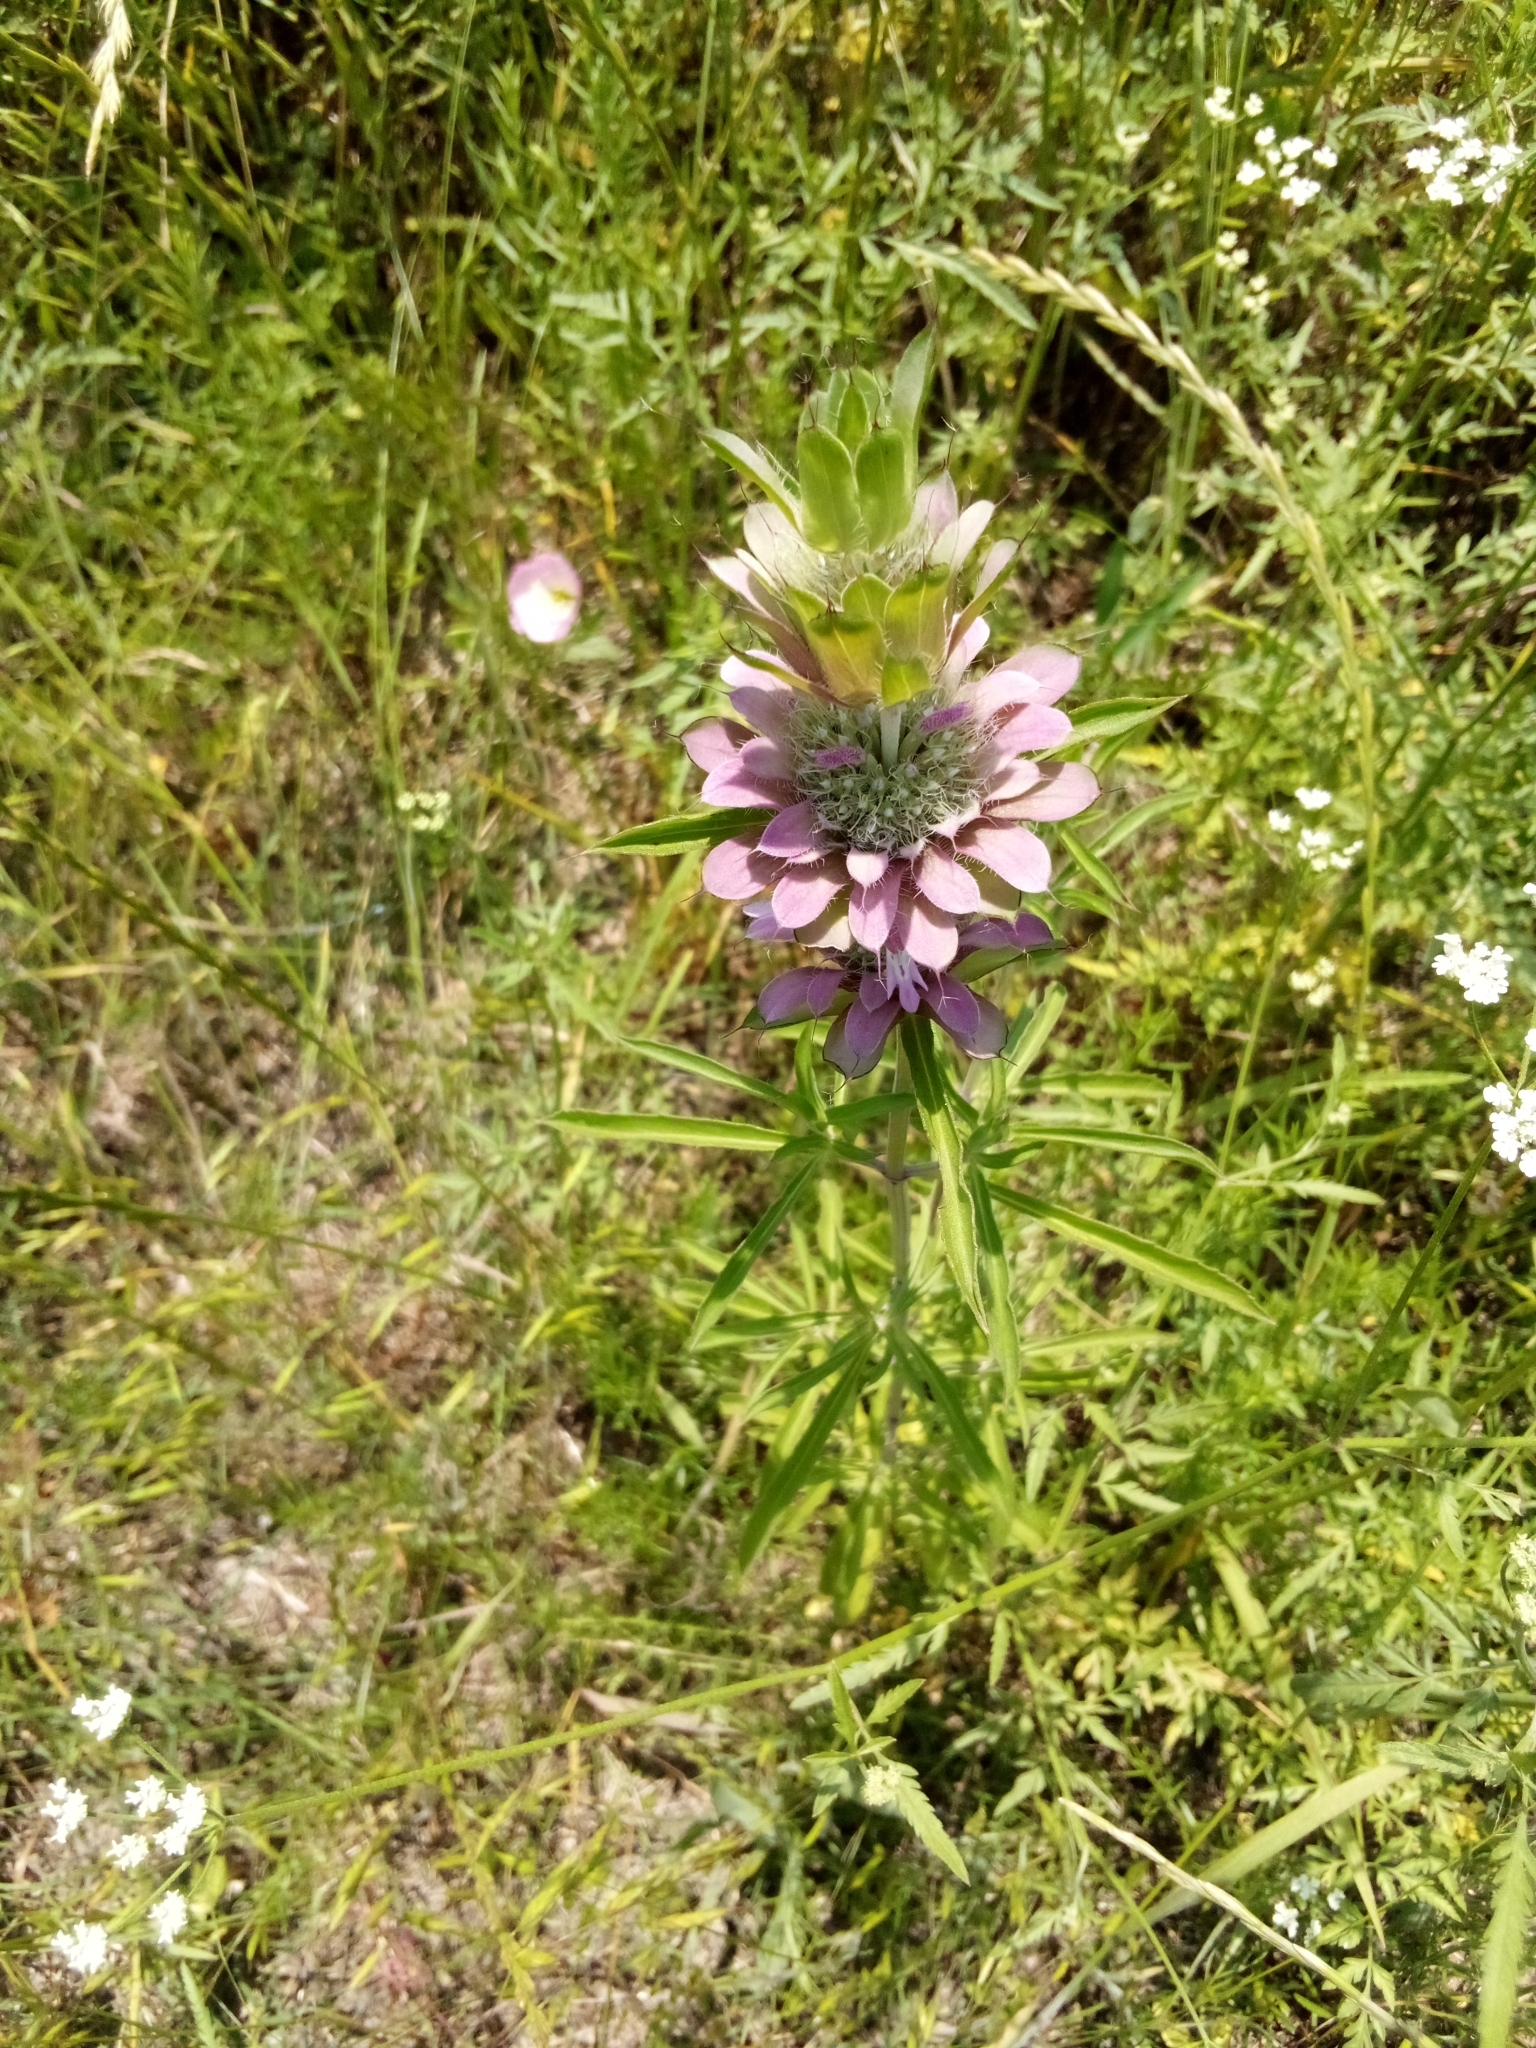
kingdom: Plantae
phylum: Tracheophyta
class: Magnoliopsida
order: Lamiales
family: Lamiaceae
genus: Monarda
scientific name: Monarda citriodora
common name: Lemon beebalm
